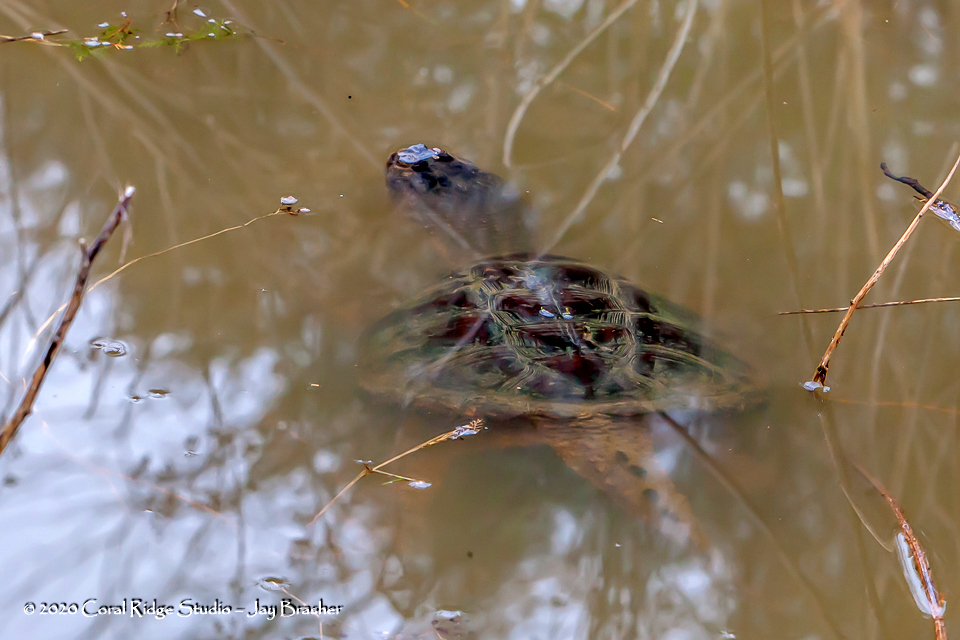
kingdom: Animalia
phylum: Chordata
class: Testudines
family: Chelydridae
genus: Chelydra
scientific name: Chelydra serpentina
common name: Common snapping turtle
